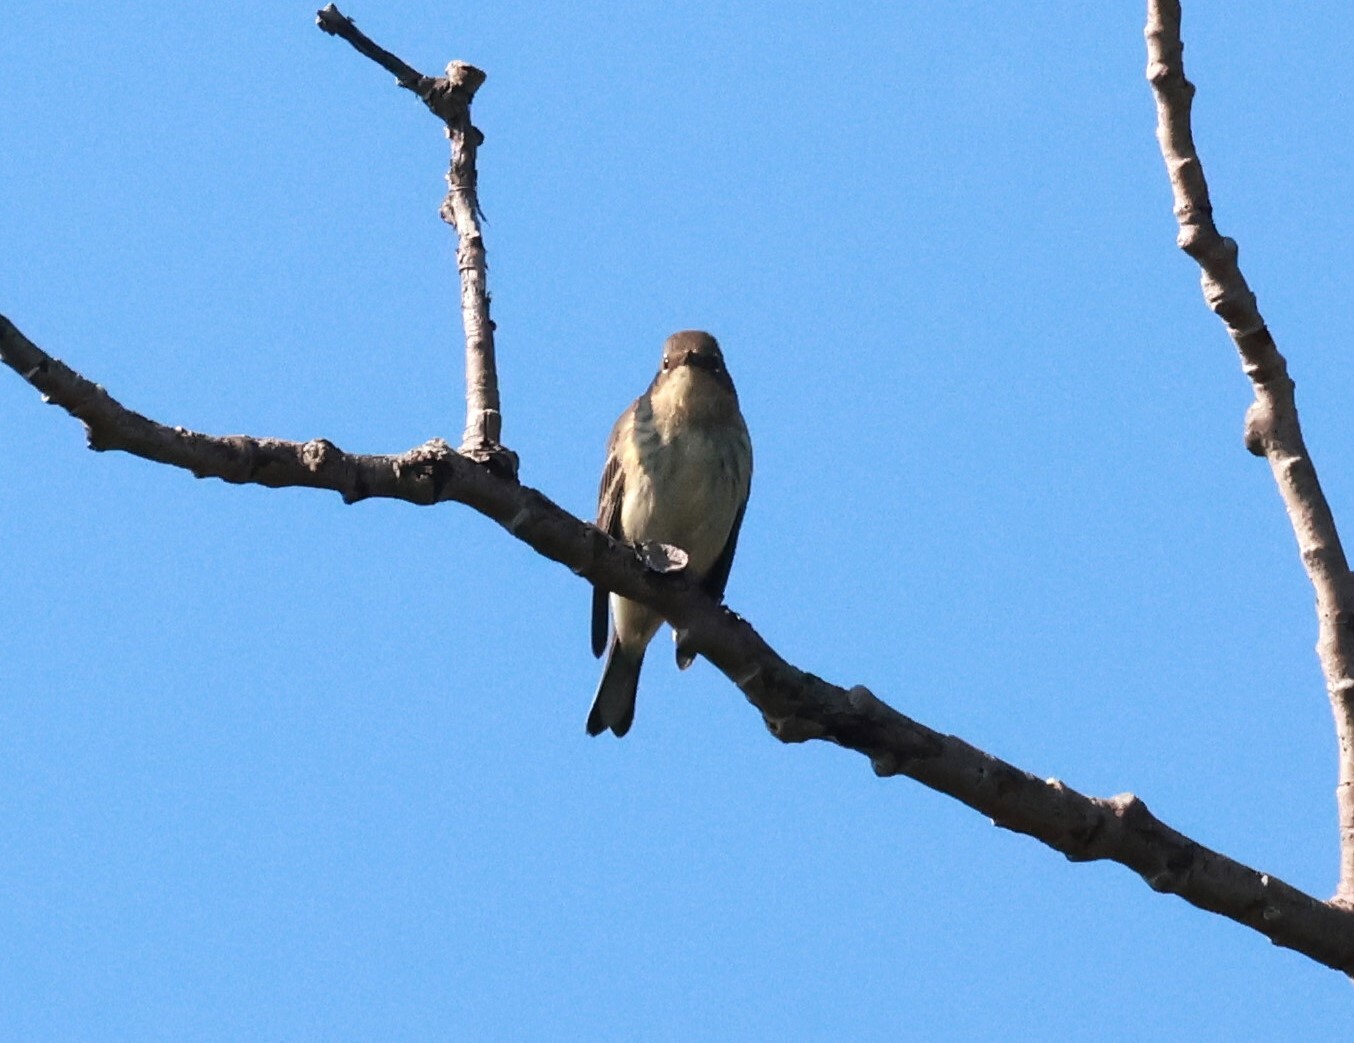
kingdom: Animalia
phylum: Chordata
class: Aves
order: Passeriformes
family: Parulidae
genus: Setophaga
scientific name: Setophaga coronata
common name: Myrtle warbler
